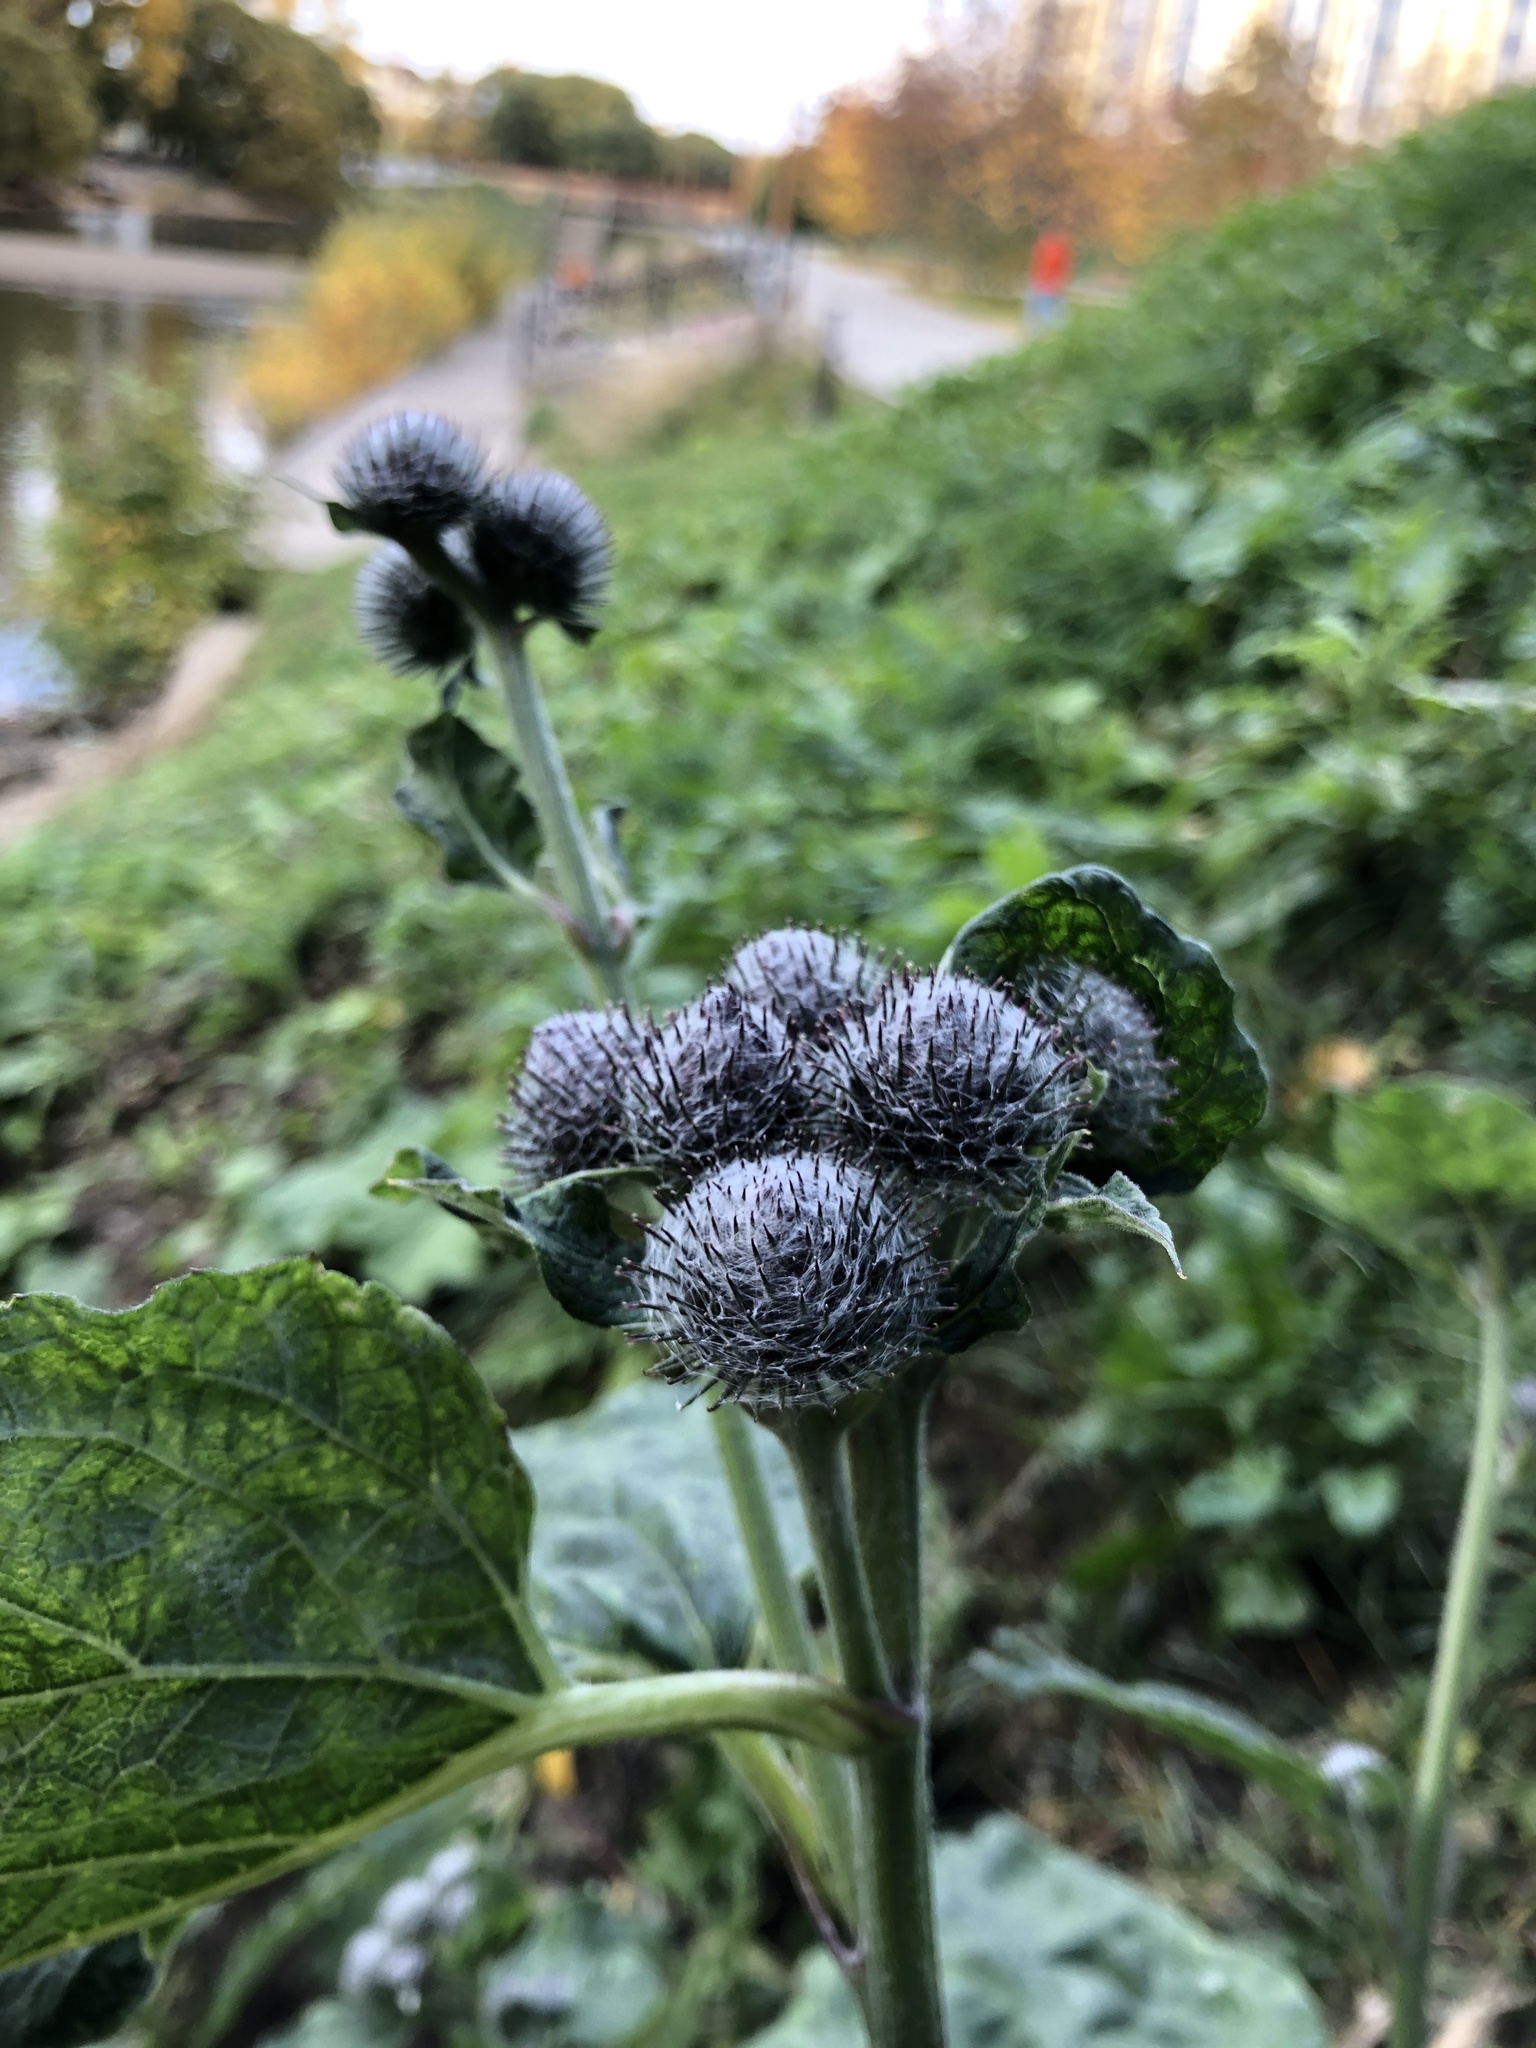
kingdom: Plantae
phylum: Tracheophyta
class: Magnoliopsida
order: Asterales
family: Asteraceae
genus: Arctium
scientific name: Arctium tomentosum
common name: Woolly burdock
